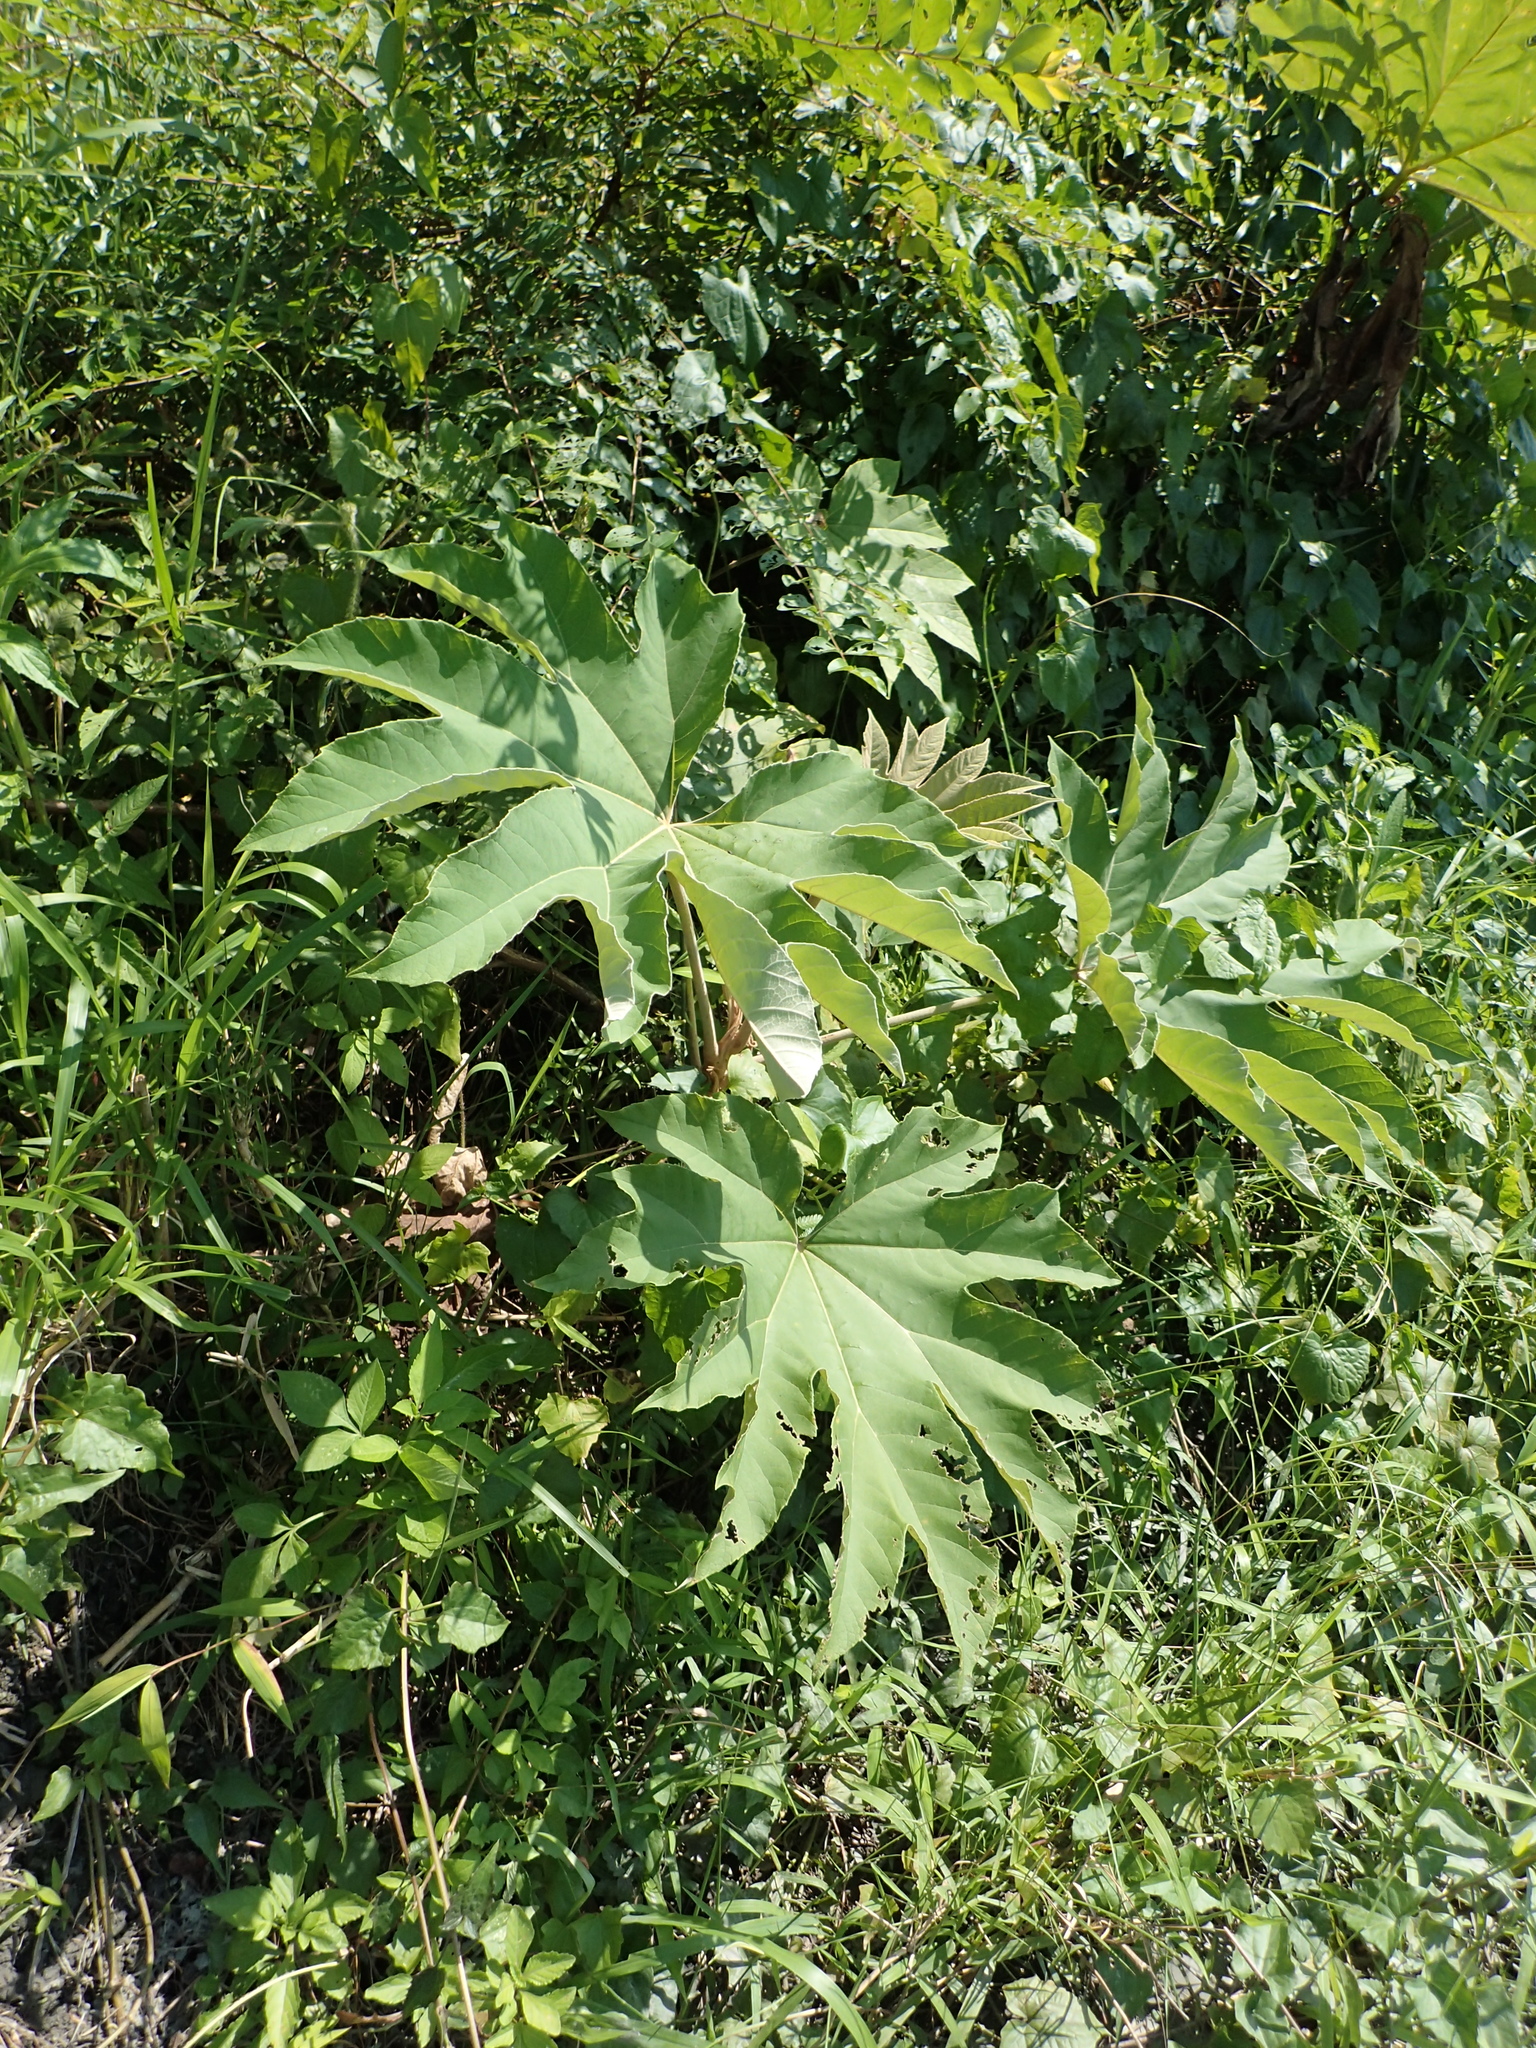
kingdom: Plantae
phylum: Tracheophyta
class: Magnoliopsida
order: Apiales
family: Araliaceae
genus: Tetrapanax
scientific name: Tetrapanax papyrifer
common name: Rice-paper plant
